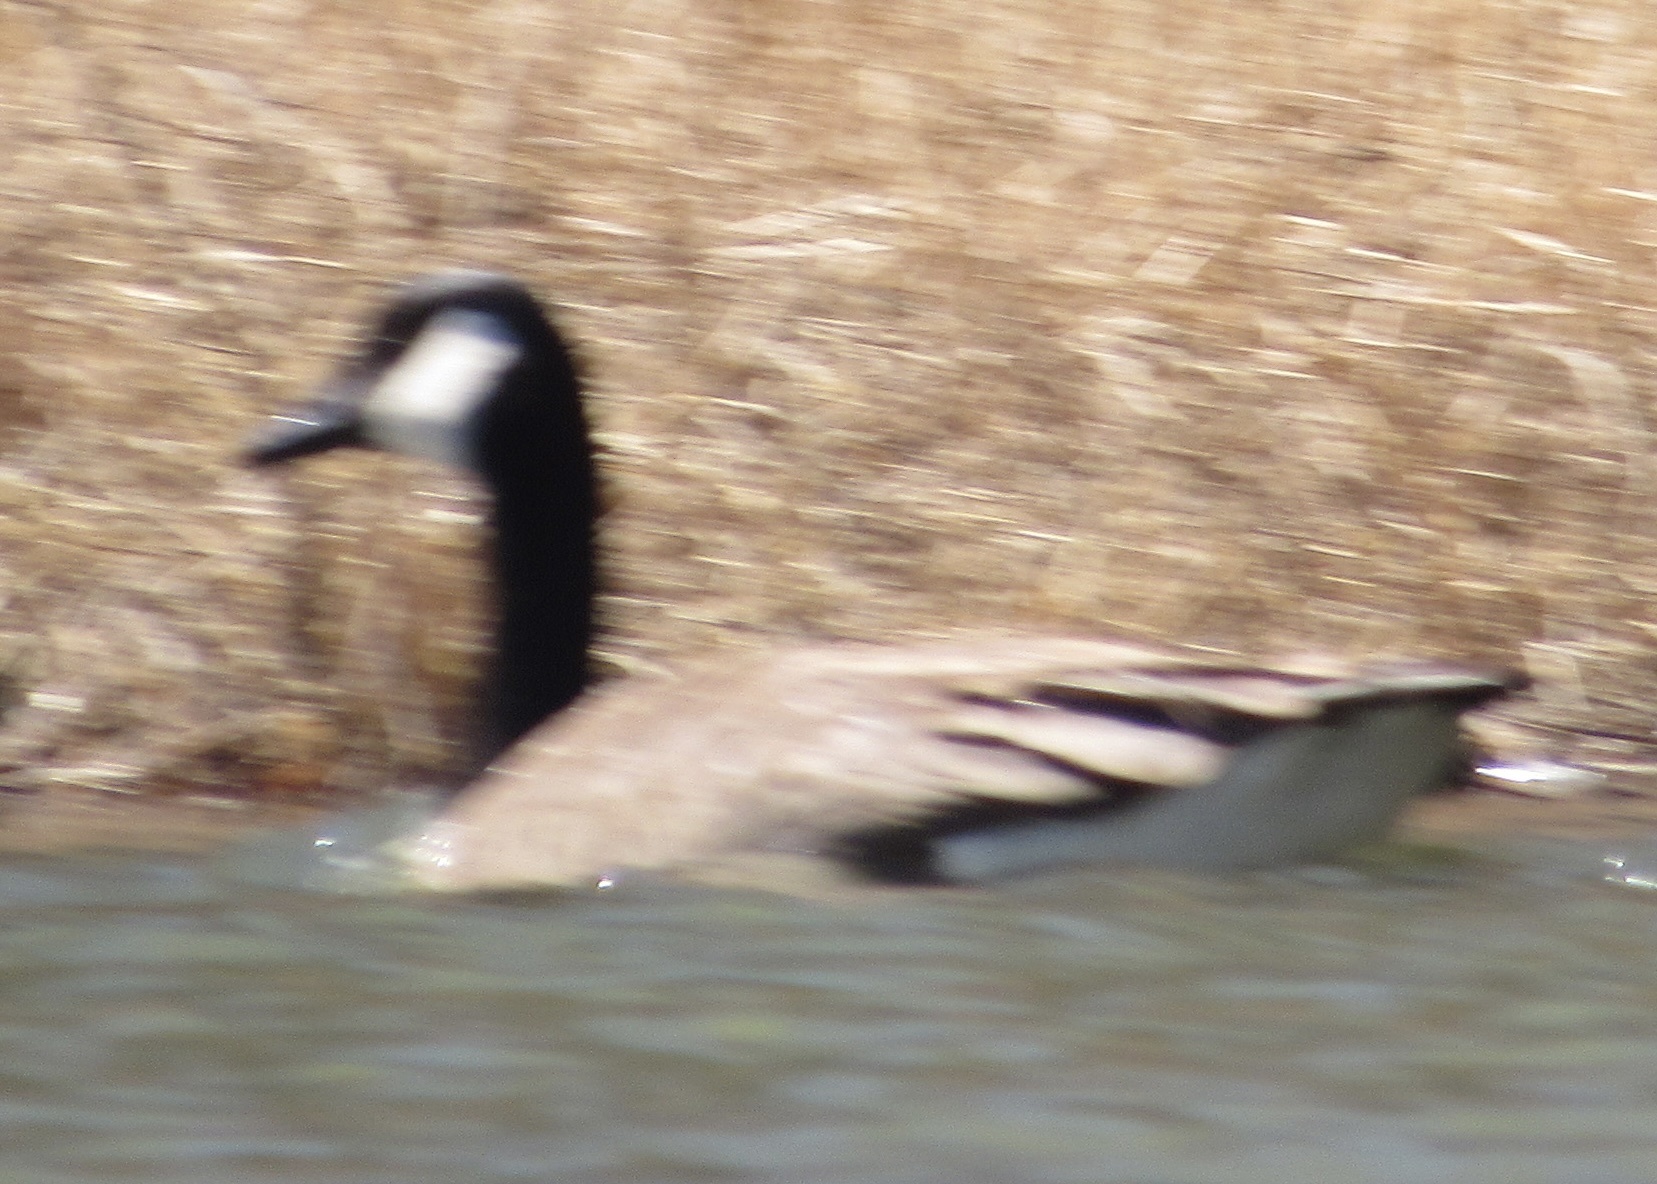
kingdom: Animalia
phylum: Chordata
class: Aves
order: Anseriformes
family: Anatidae
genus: Branta
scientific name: Branta canadensis
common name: Canada goose
